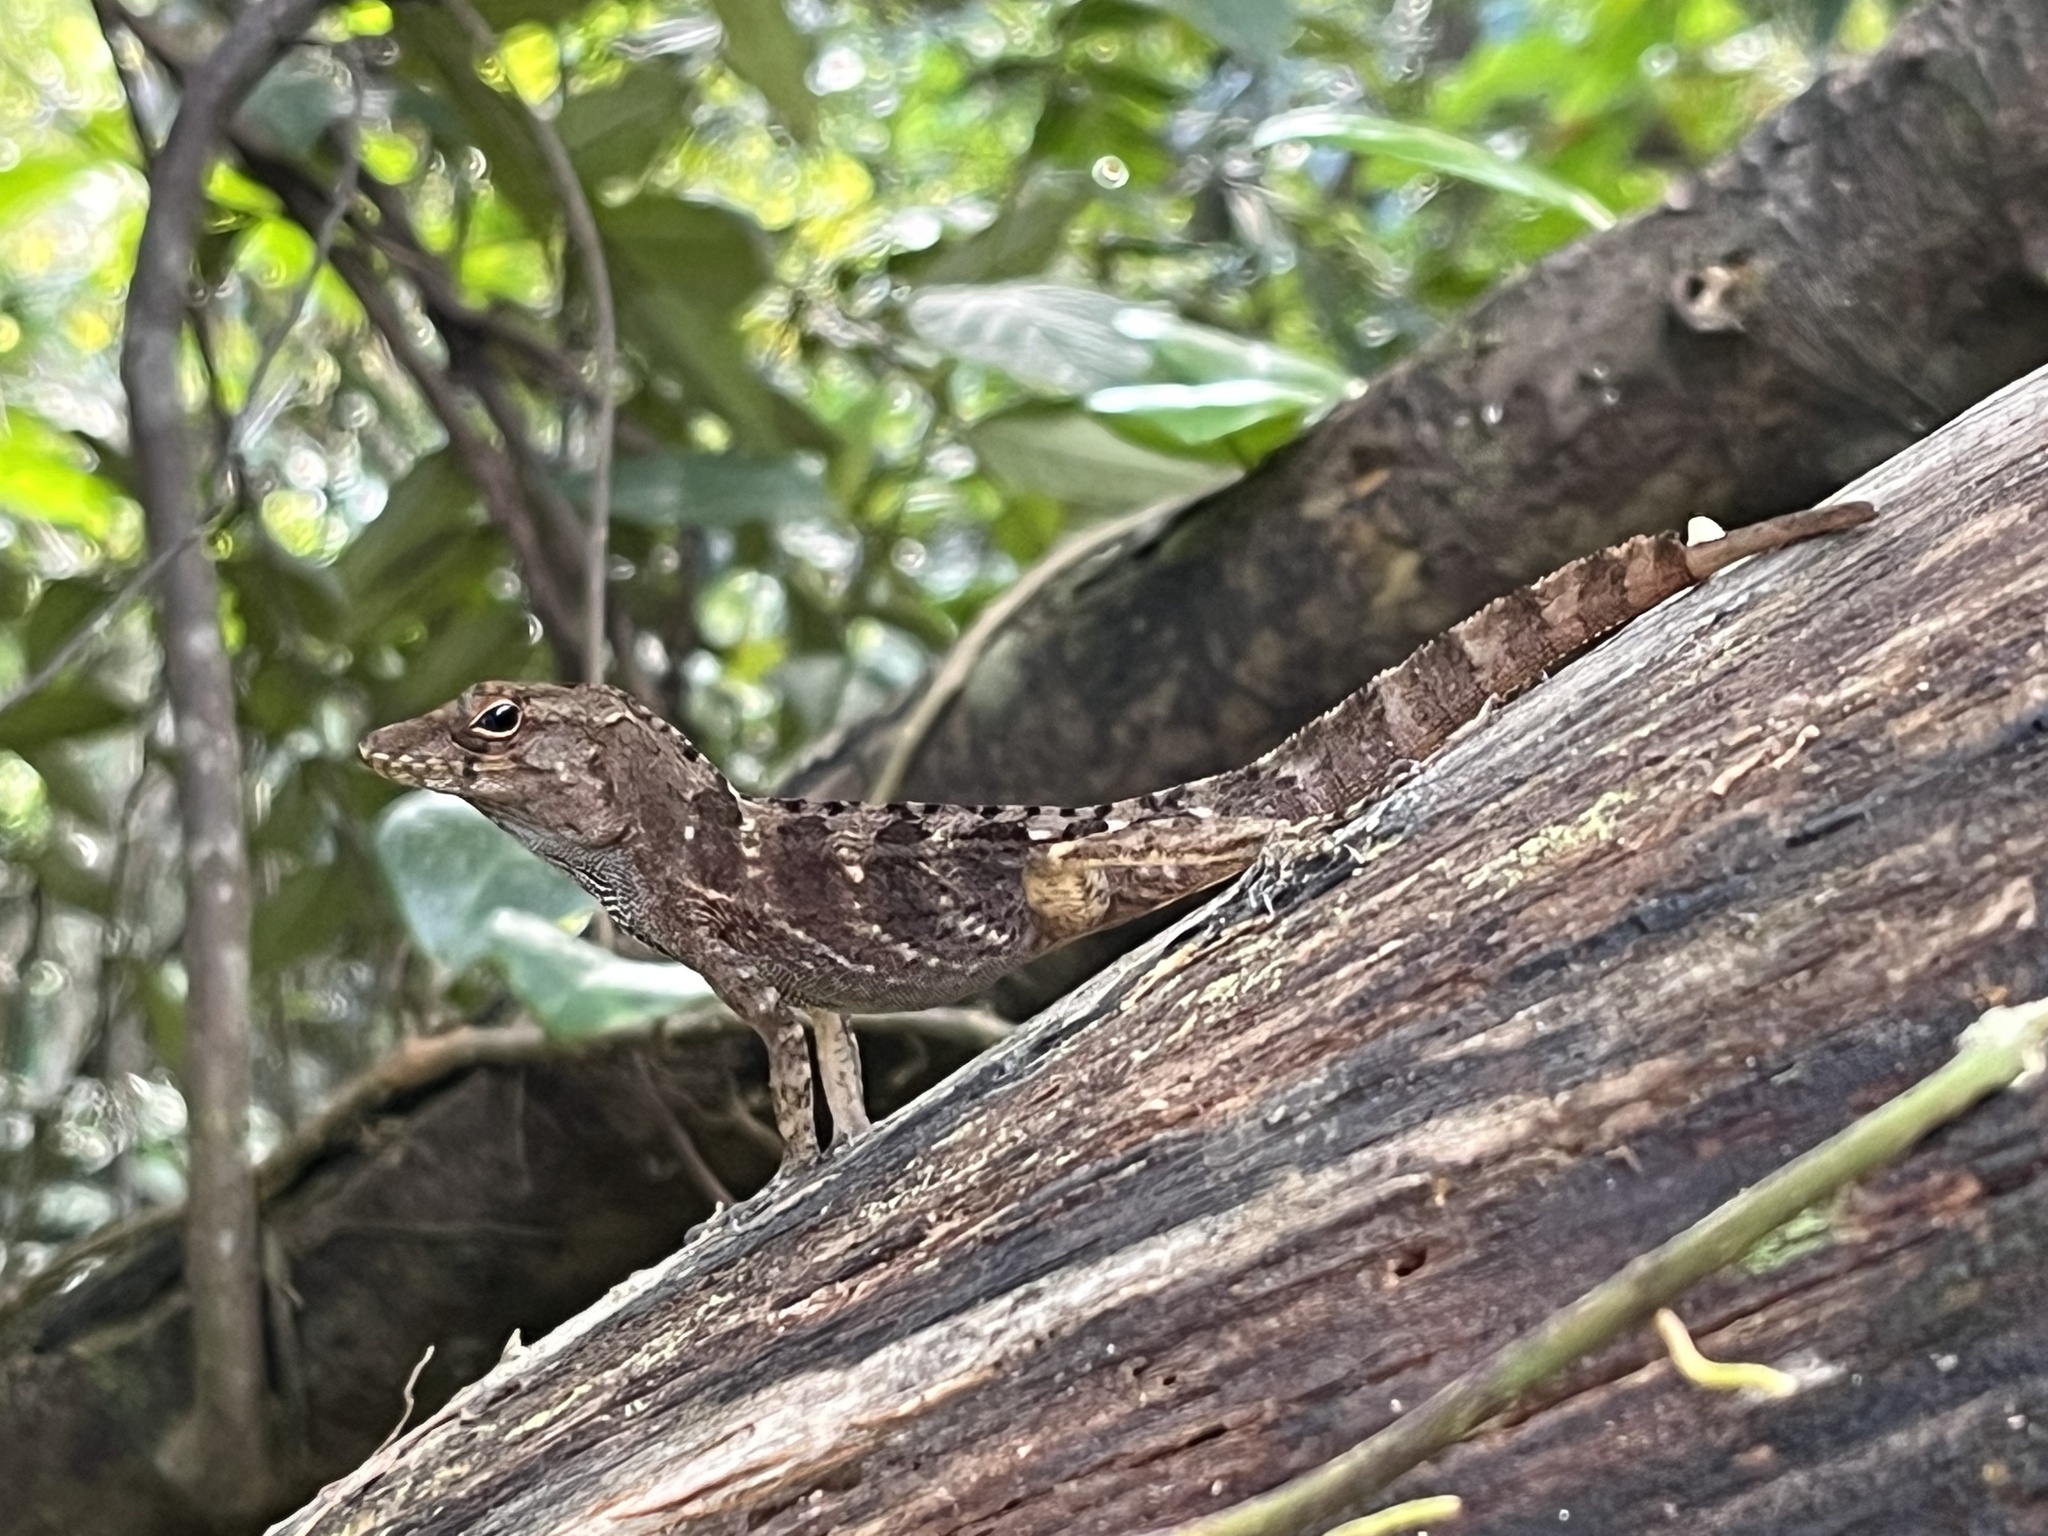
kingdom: Animalia
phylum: Chordata
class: Squamata
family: Dactyloidae
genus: Anolis
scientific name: Anolis gundlachi
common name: Gundlach’s anole
